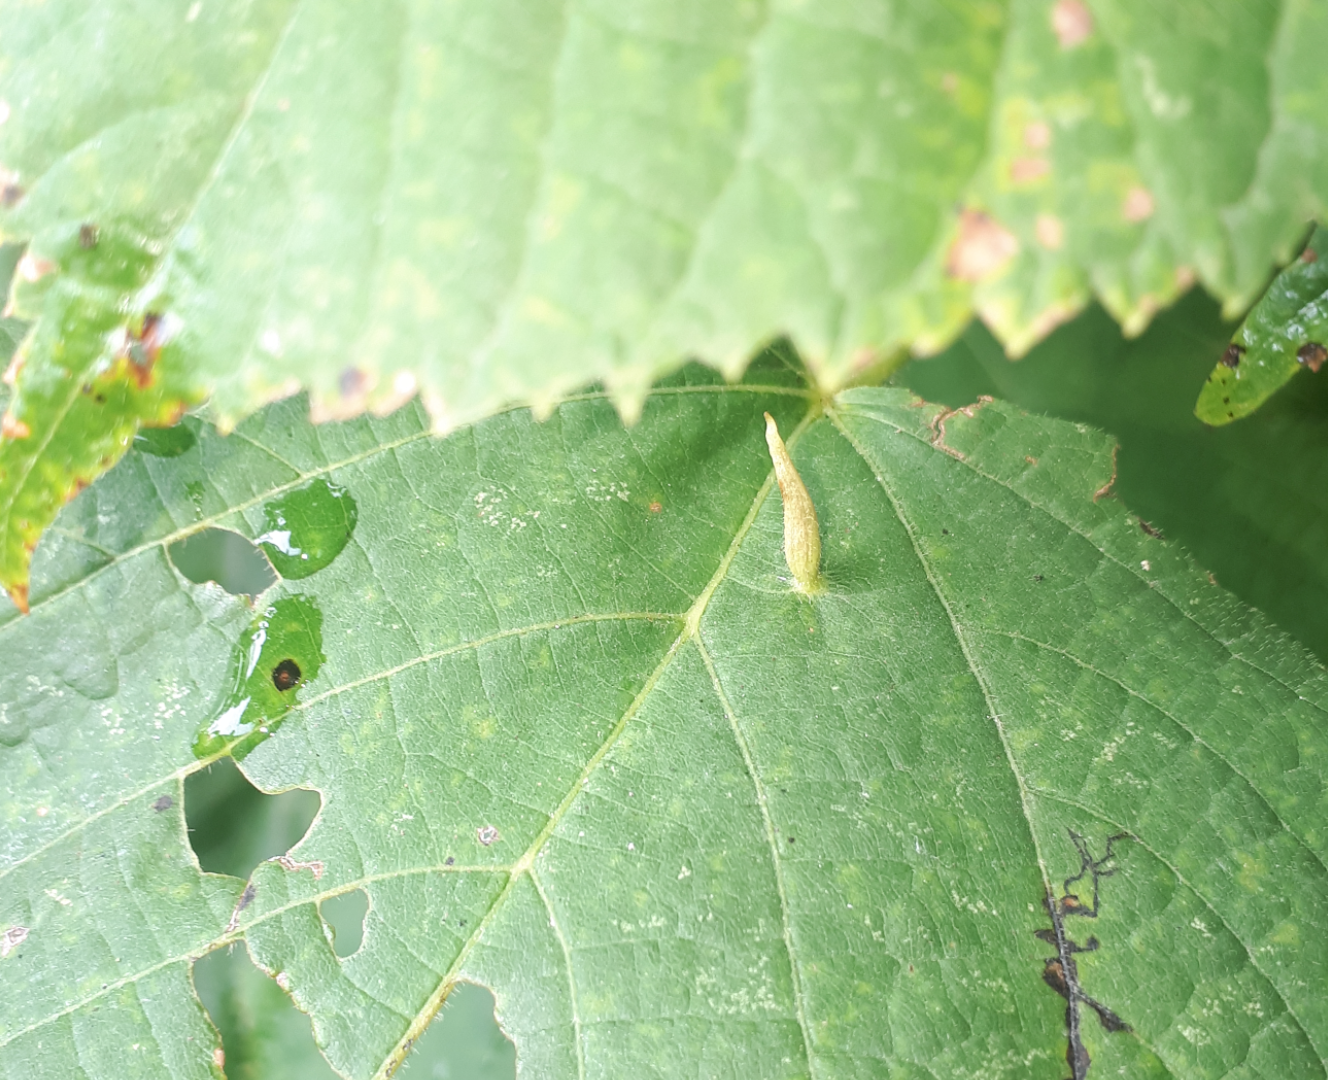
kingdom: Animalia
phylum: Arthropoda
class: Arachnida
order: Trombidiformes
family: Eriophyidae
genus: Eriophyes
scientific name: Eriophyes tiliae
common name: Red nail gall mite
